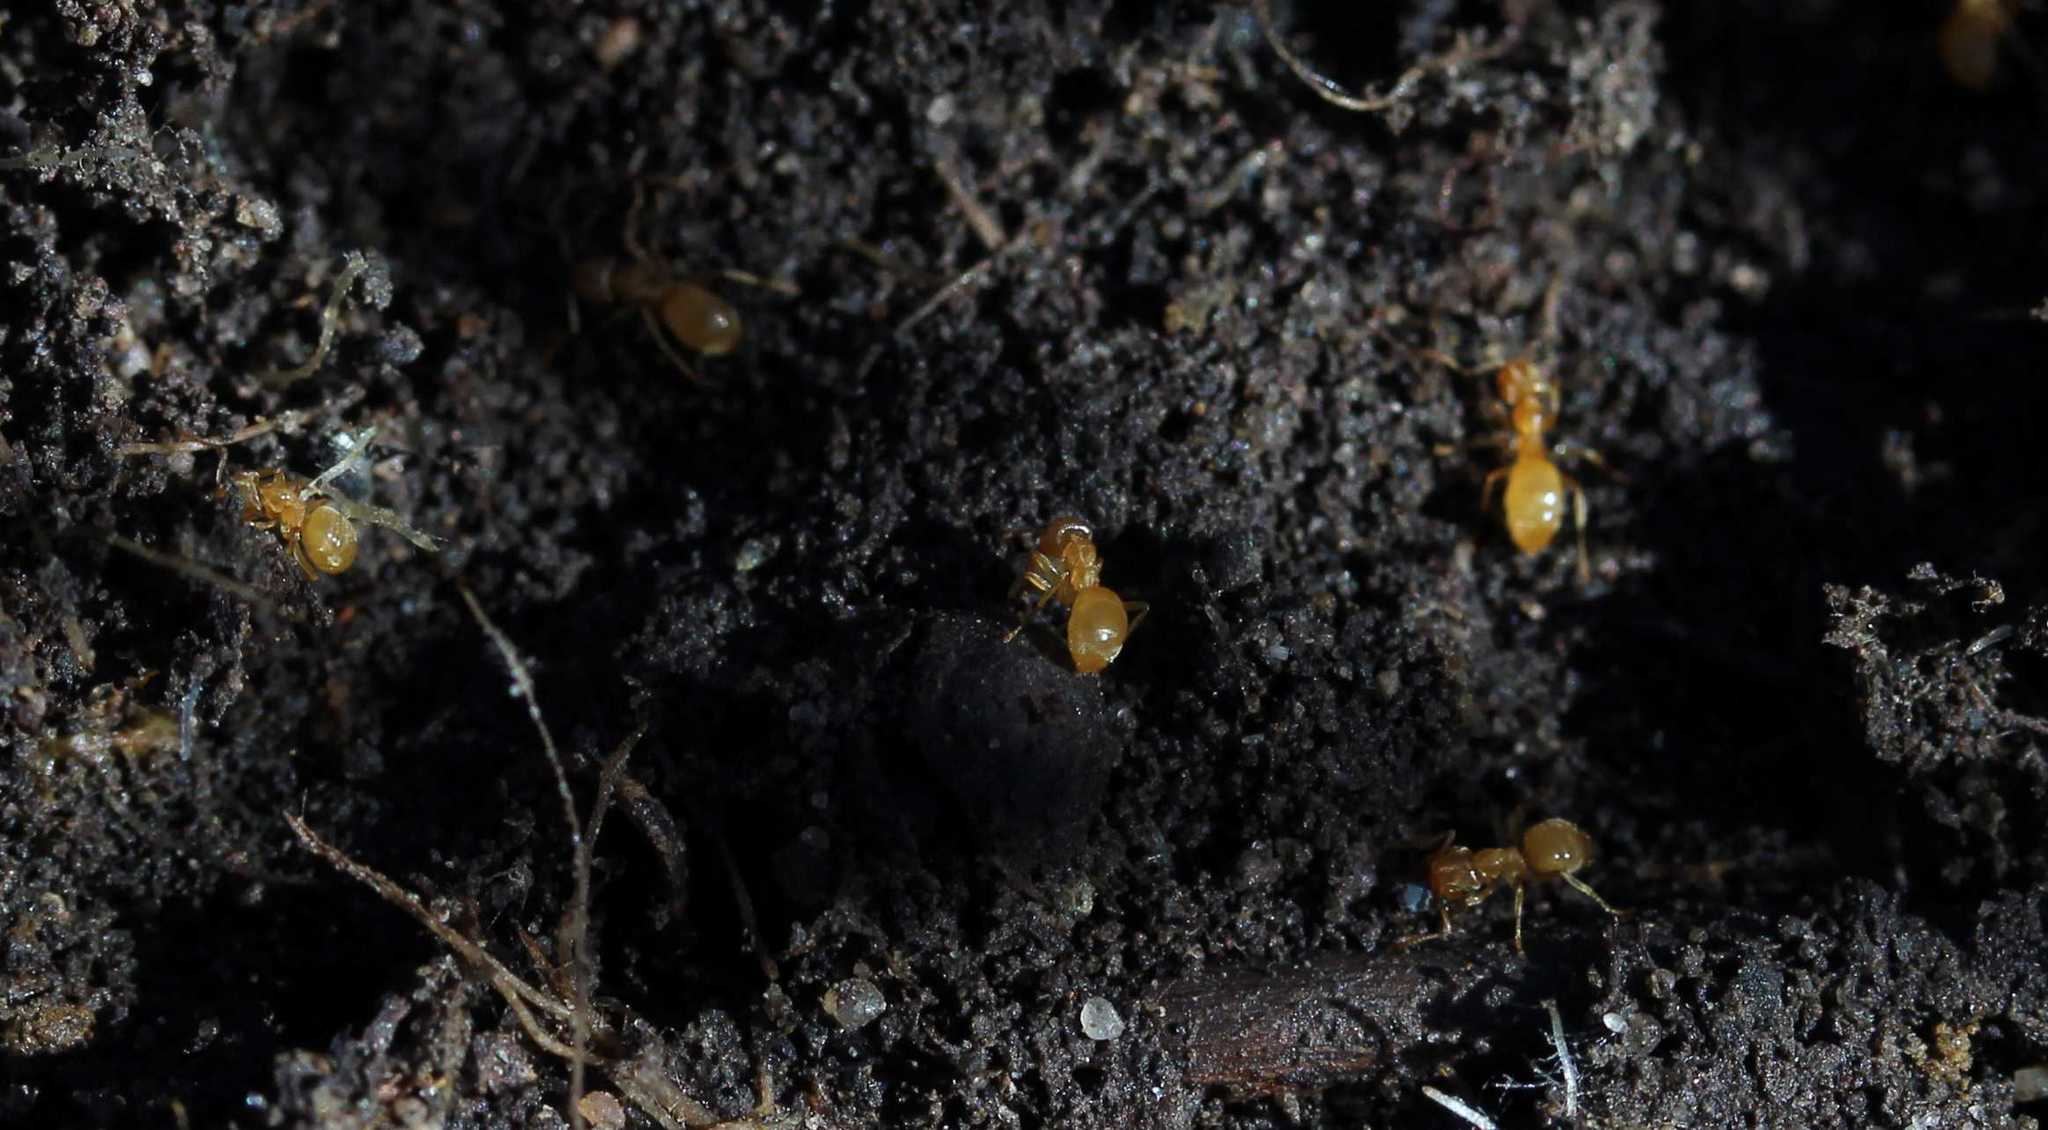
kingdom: Animalia
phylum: Arthropoda
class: Insecta
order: Hymenoptera
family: Formicidae
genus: Lasius
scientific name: Lasius flavus
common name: Blond field ant
